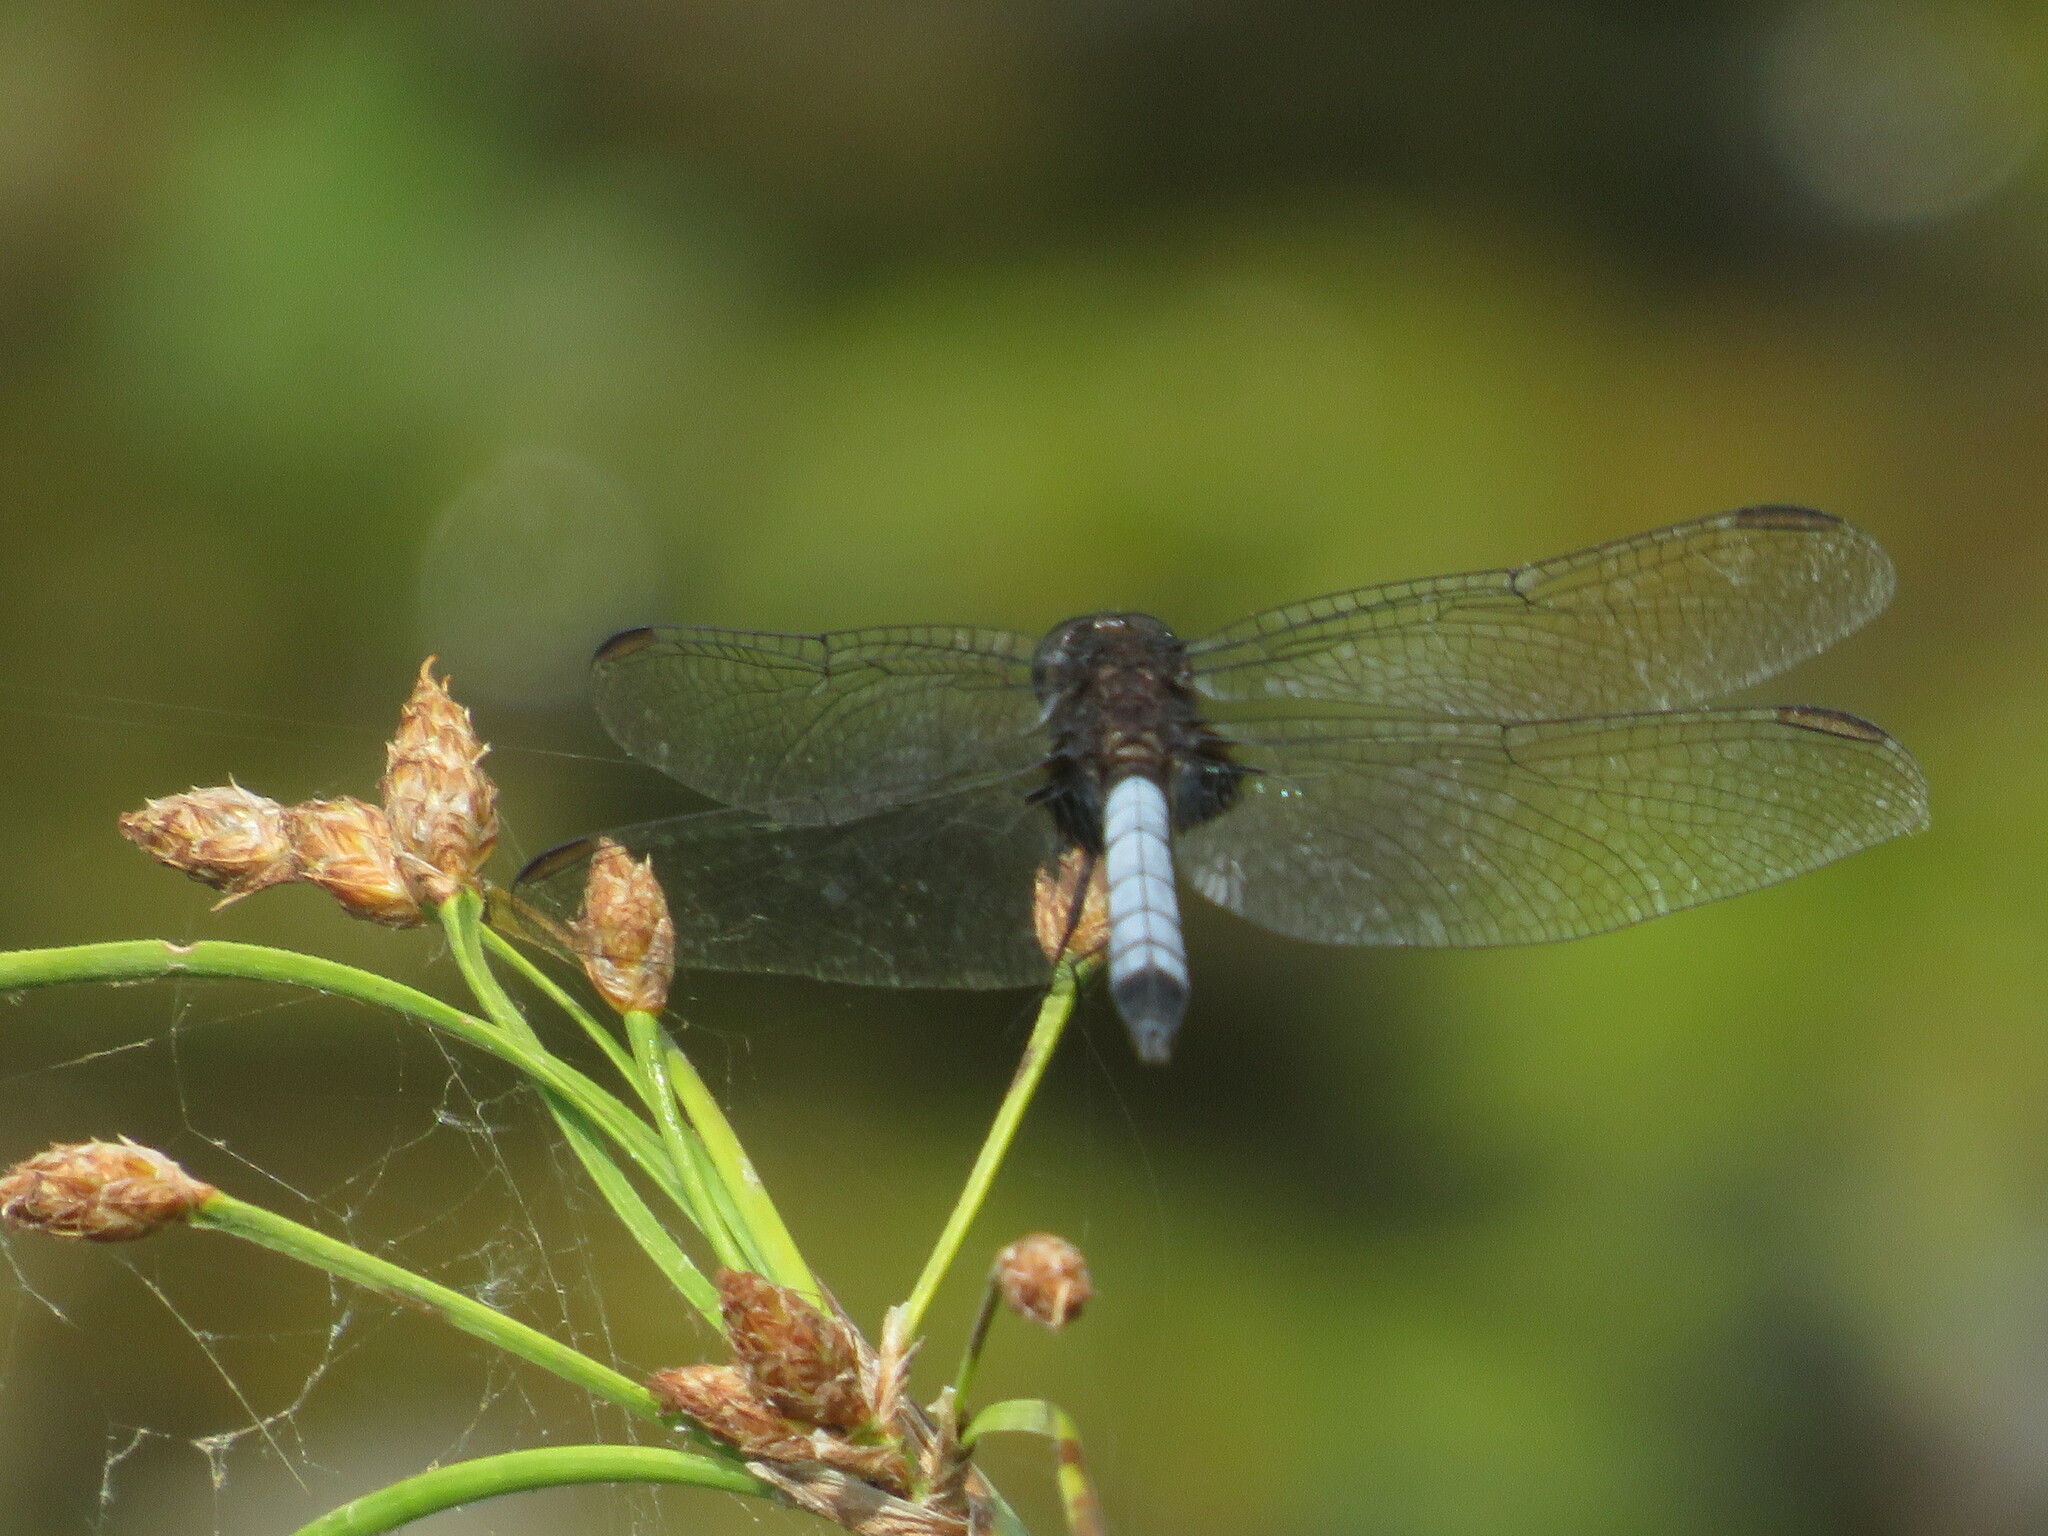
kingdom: Animalia
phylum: Arthropoda
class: Insecta
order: Odonata
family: Libellulidae
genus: Erythrodiplax
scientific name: Erythrodiplax media
